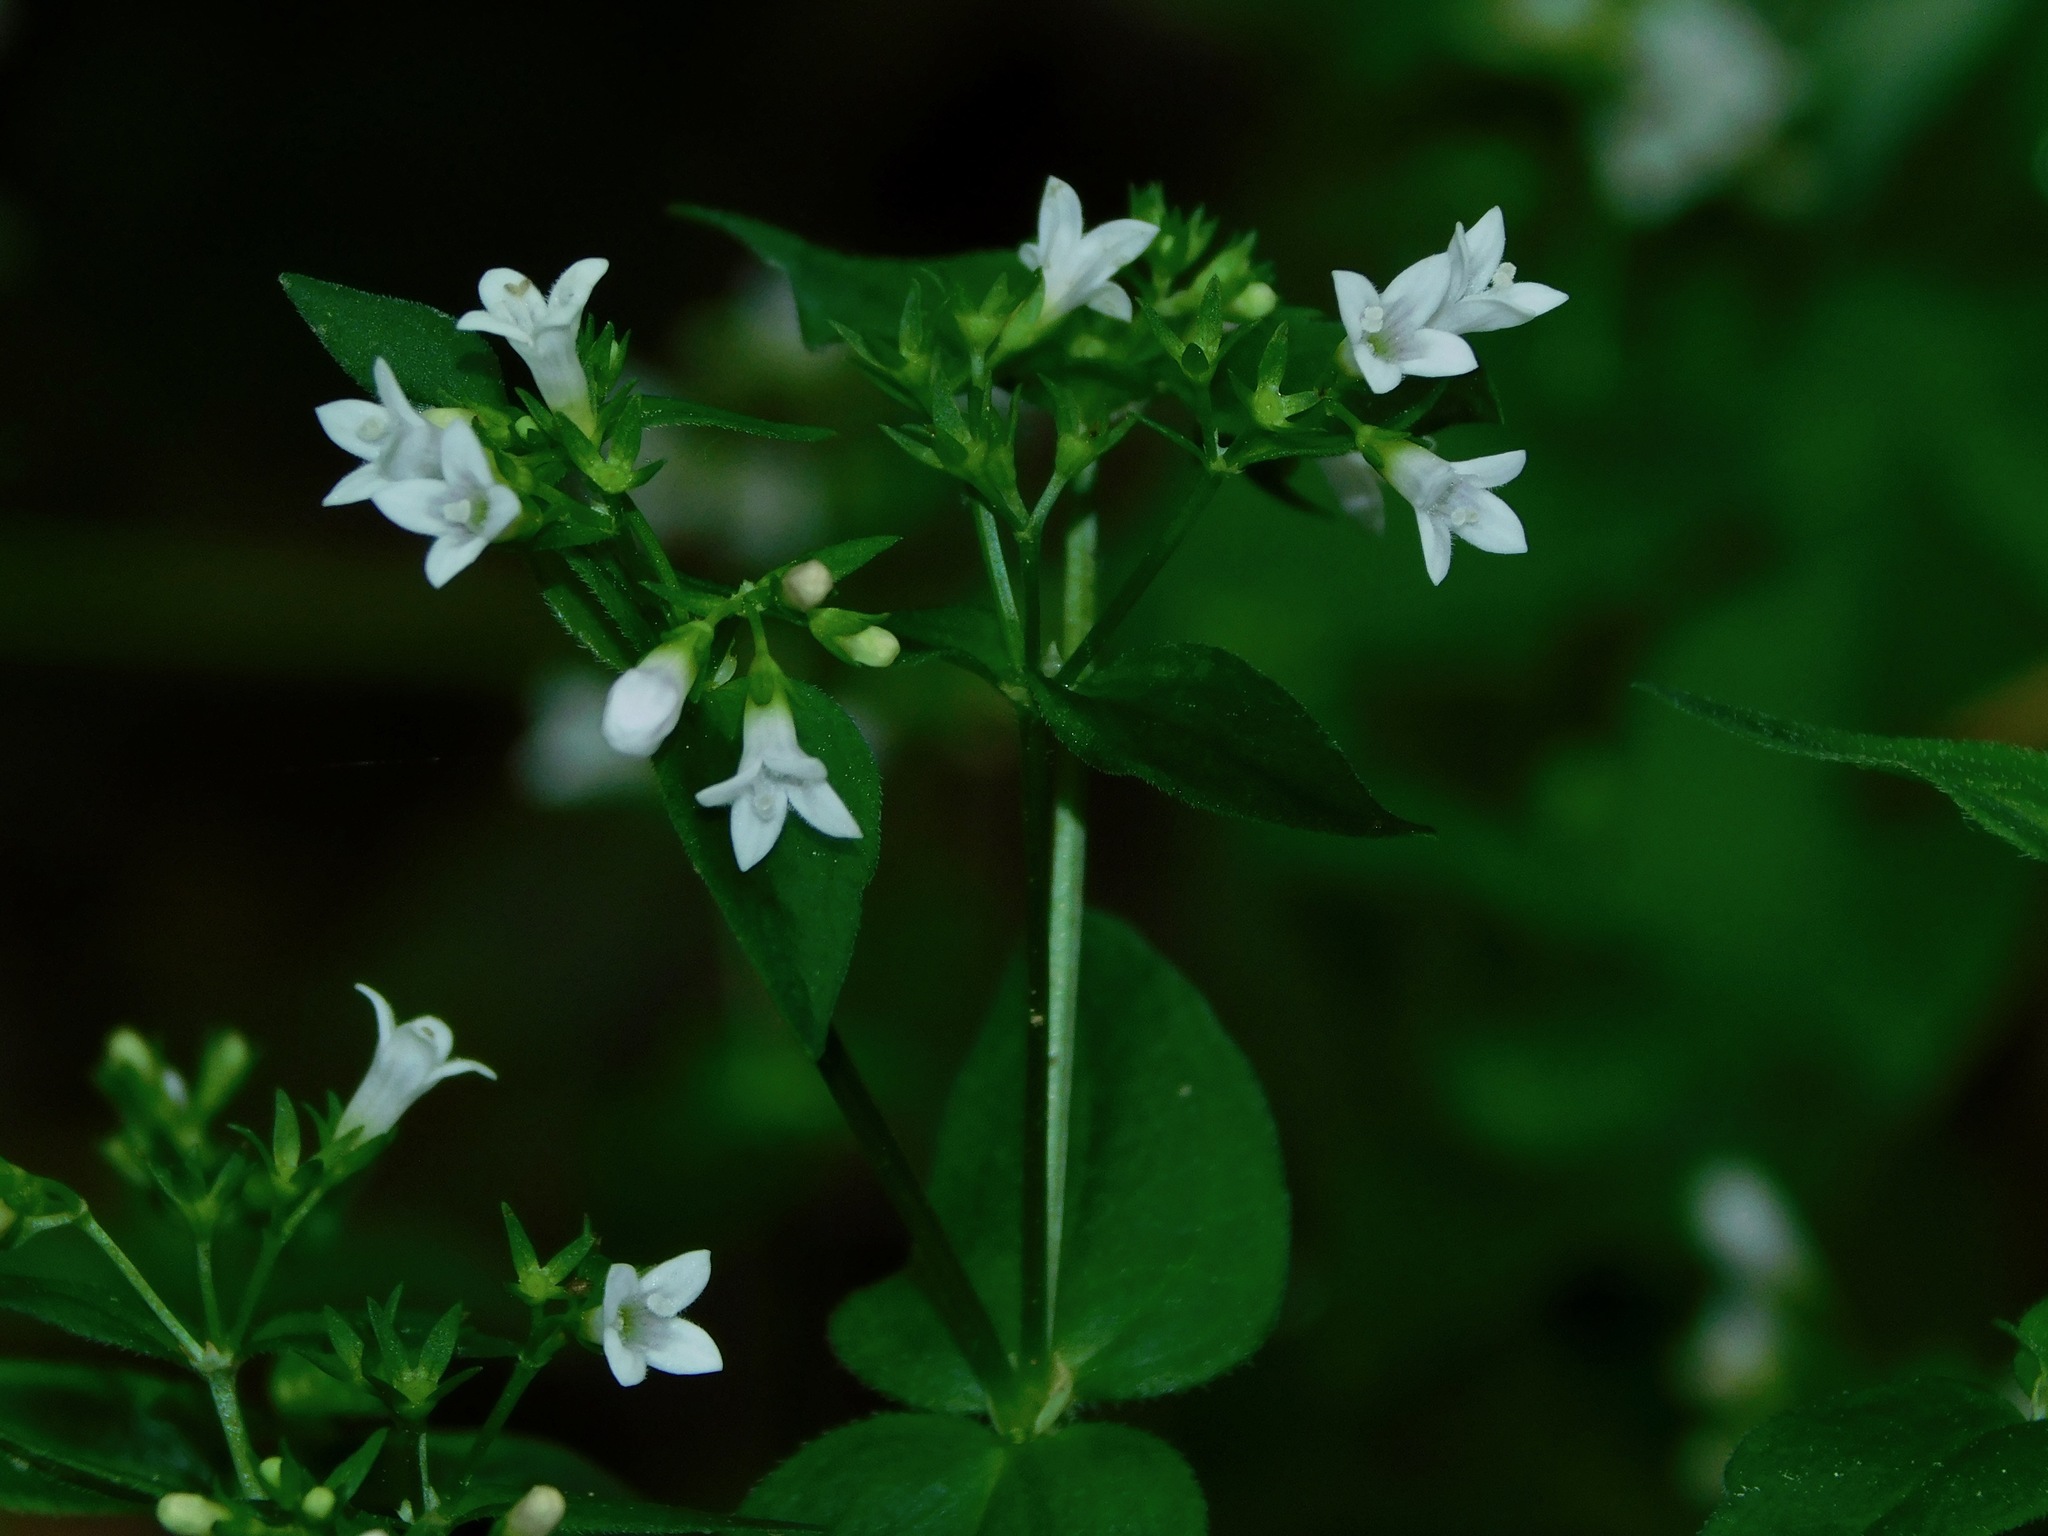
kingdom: Plantae
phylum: Tracheophyta
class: Magnoliopsida
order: Gentianales
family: Rubiaceae
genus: Houstonia
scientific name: Houstonia purpurea
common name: Summer bluet
